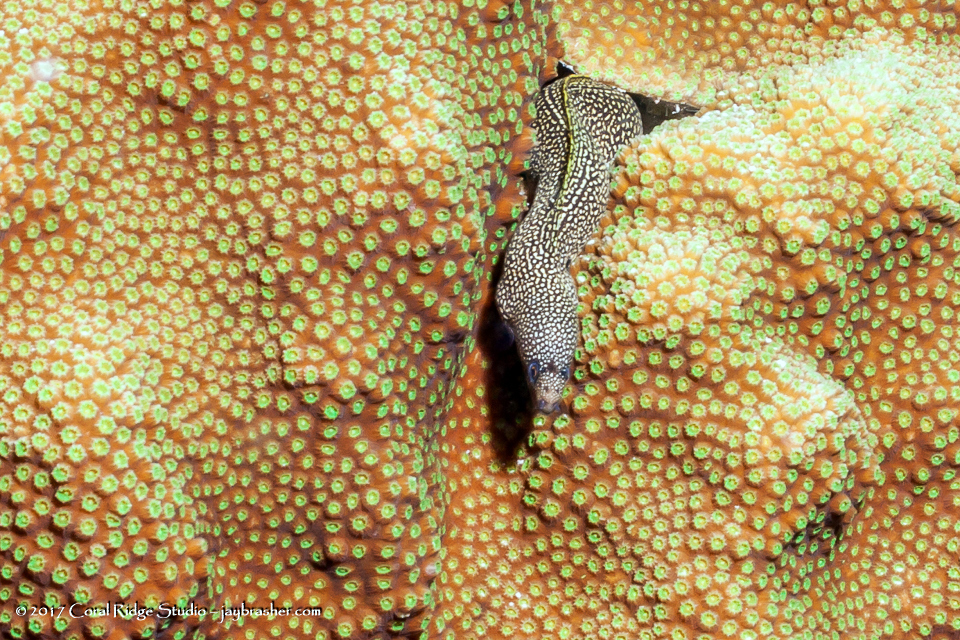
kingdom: Animalia
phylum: Chordata
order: Anguilliformes
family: Muraenidae
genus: Gymnothorax
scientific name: Gymnothorax miliaris
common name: Goldentail moray
